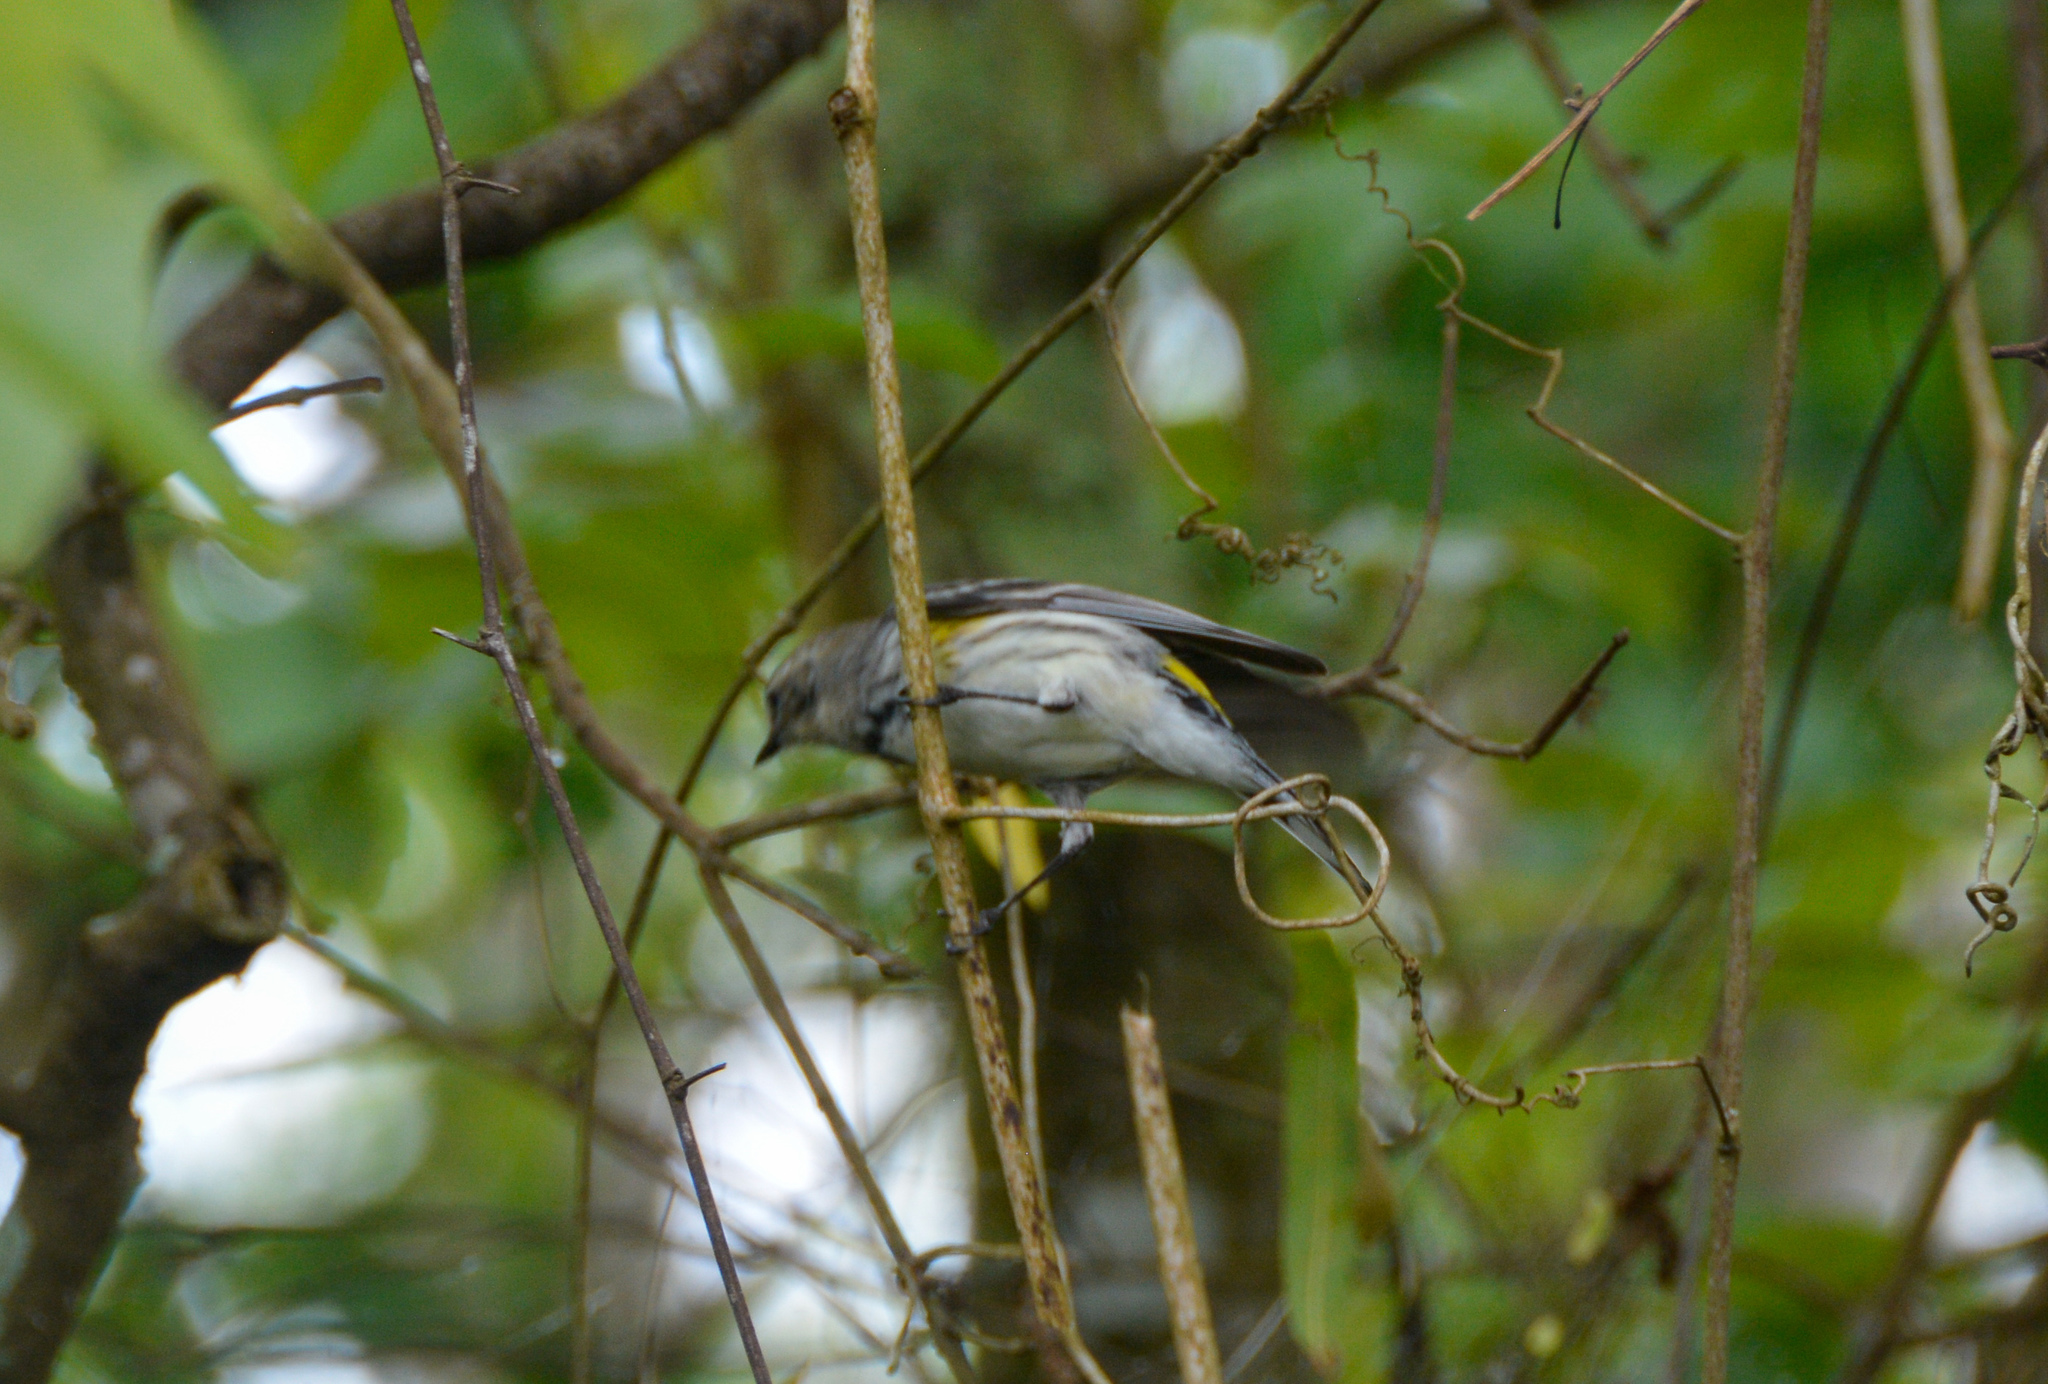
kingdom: Animalia
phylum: Chordata
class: Aves
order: Passeriformes
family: Parulidae
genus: Setophaga
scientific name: Setophaga coronata
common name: Myrtle warbler
